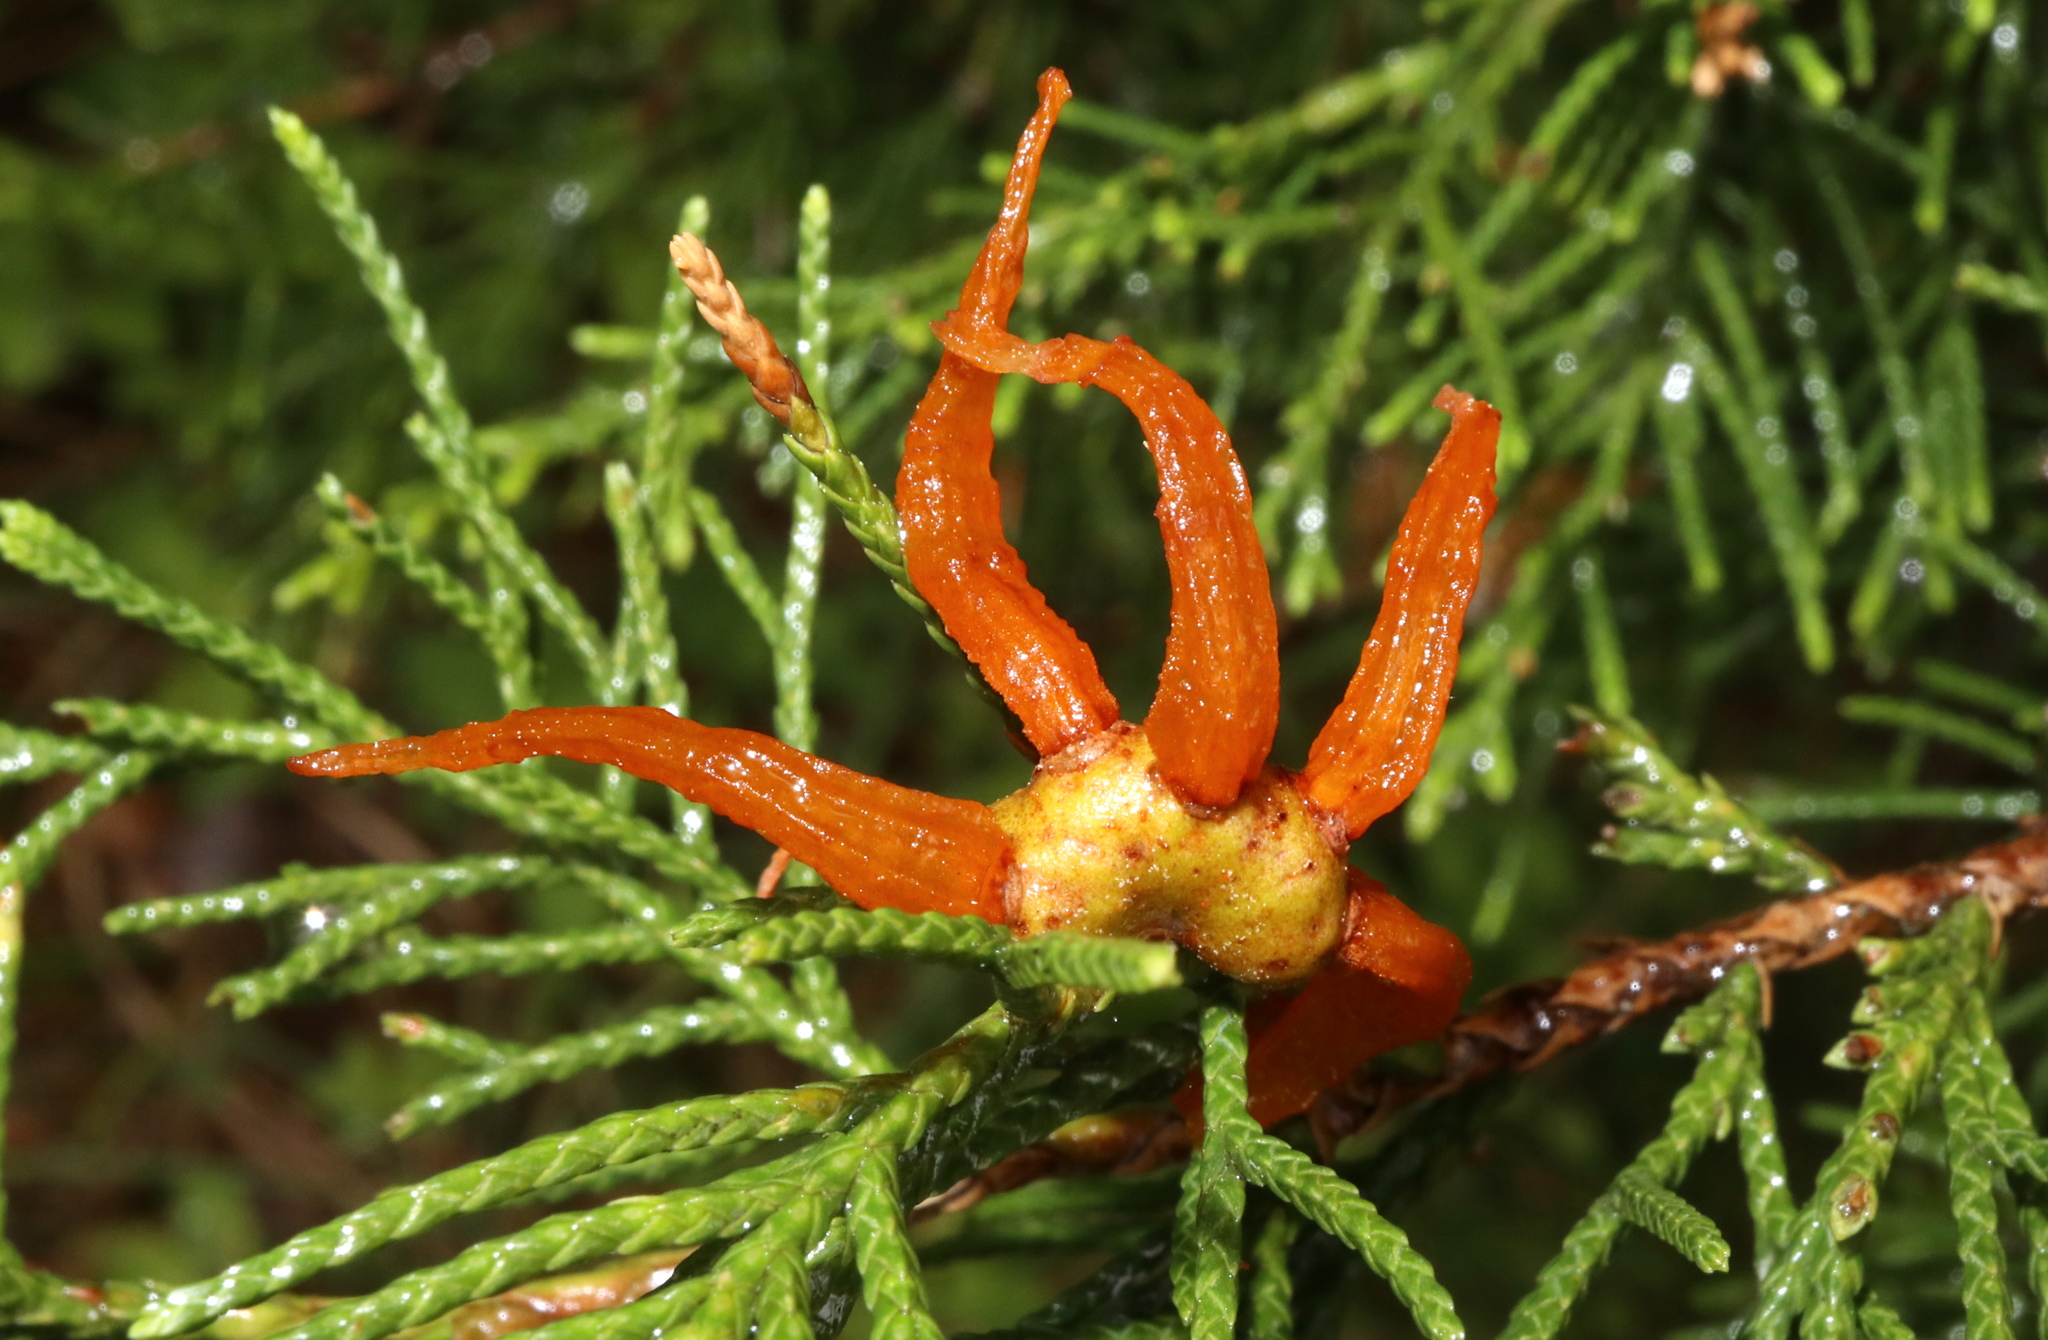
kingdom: Fungi
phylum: Basidiomycota
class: Pucciniomycetes
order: Pucciniales
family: Gymnosporangiaceae
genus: Gymnosporangium
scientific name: Gymnosporangium juniperi-virginianae
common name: Juniper-apple rust
